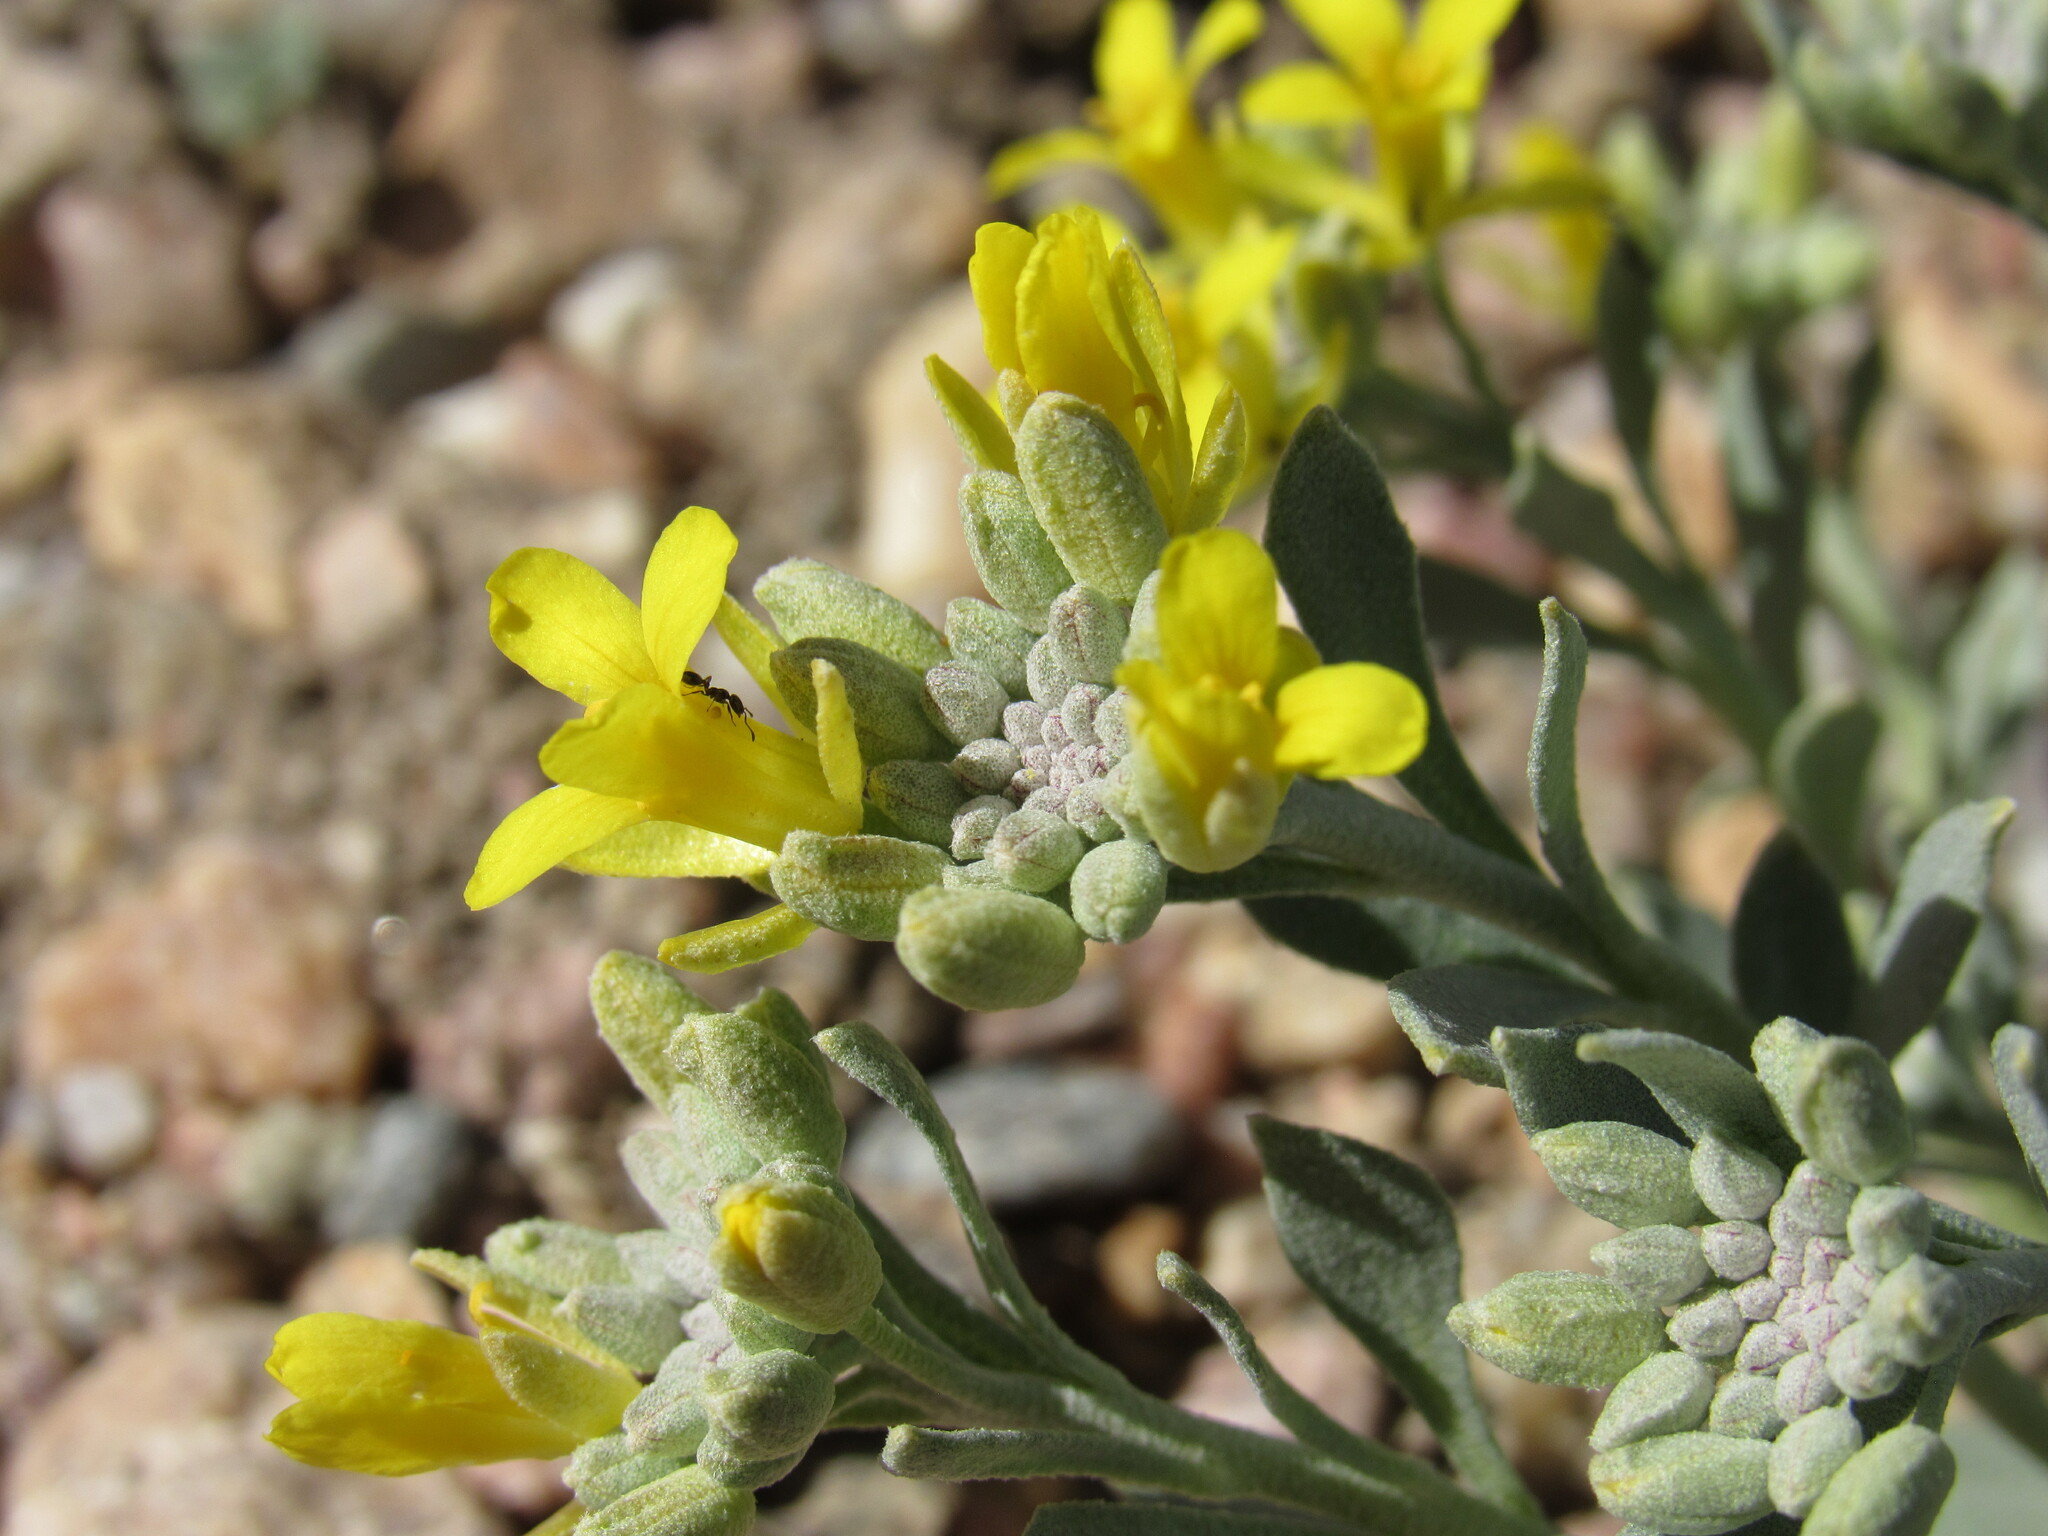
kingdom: Plantae
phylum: Tracheophyta
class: Magnoliopsida
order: Brassicales
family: Brassicaceae
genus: Physaria
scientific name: Physaria bellii
